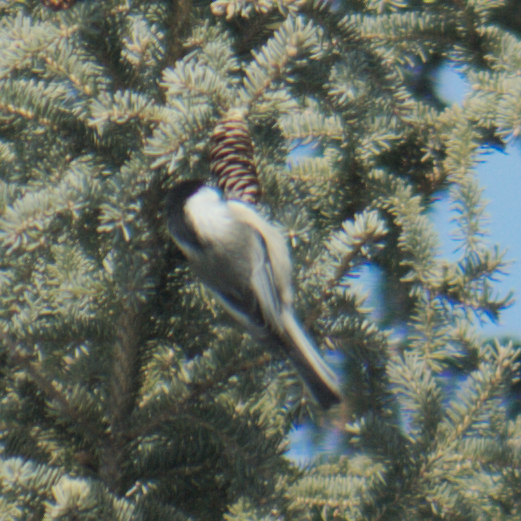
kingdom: Animalia
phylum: Chordata
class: Aves
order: Passeriformes
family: Paridae
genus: Poecile
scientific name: Poecile atricapillus
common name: Black-capped chickadee
